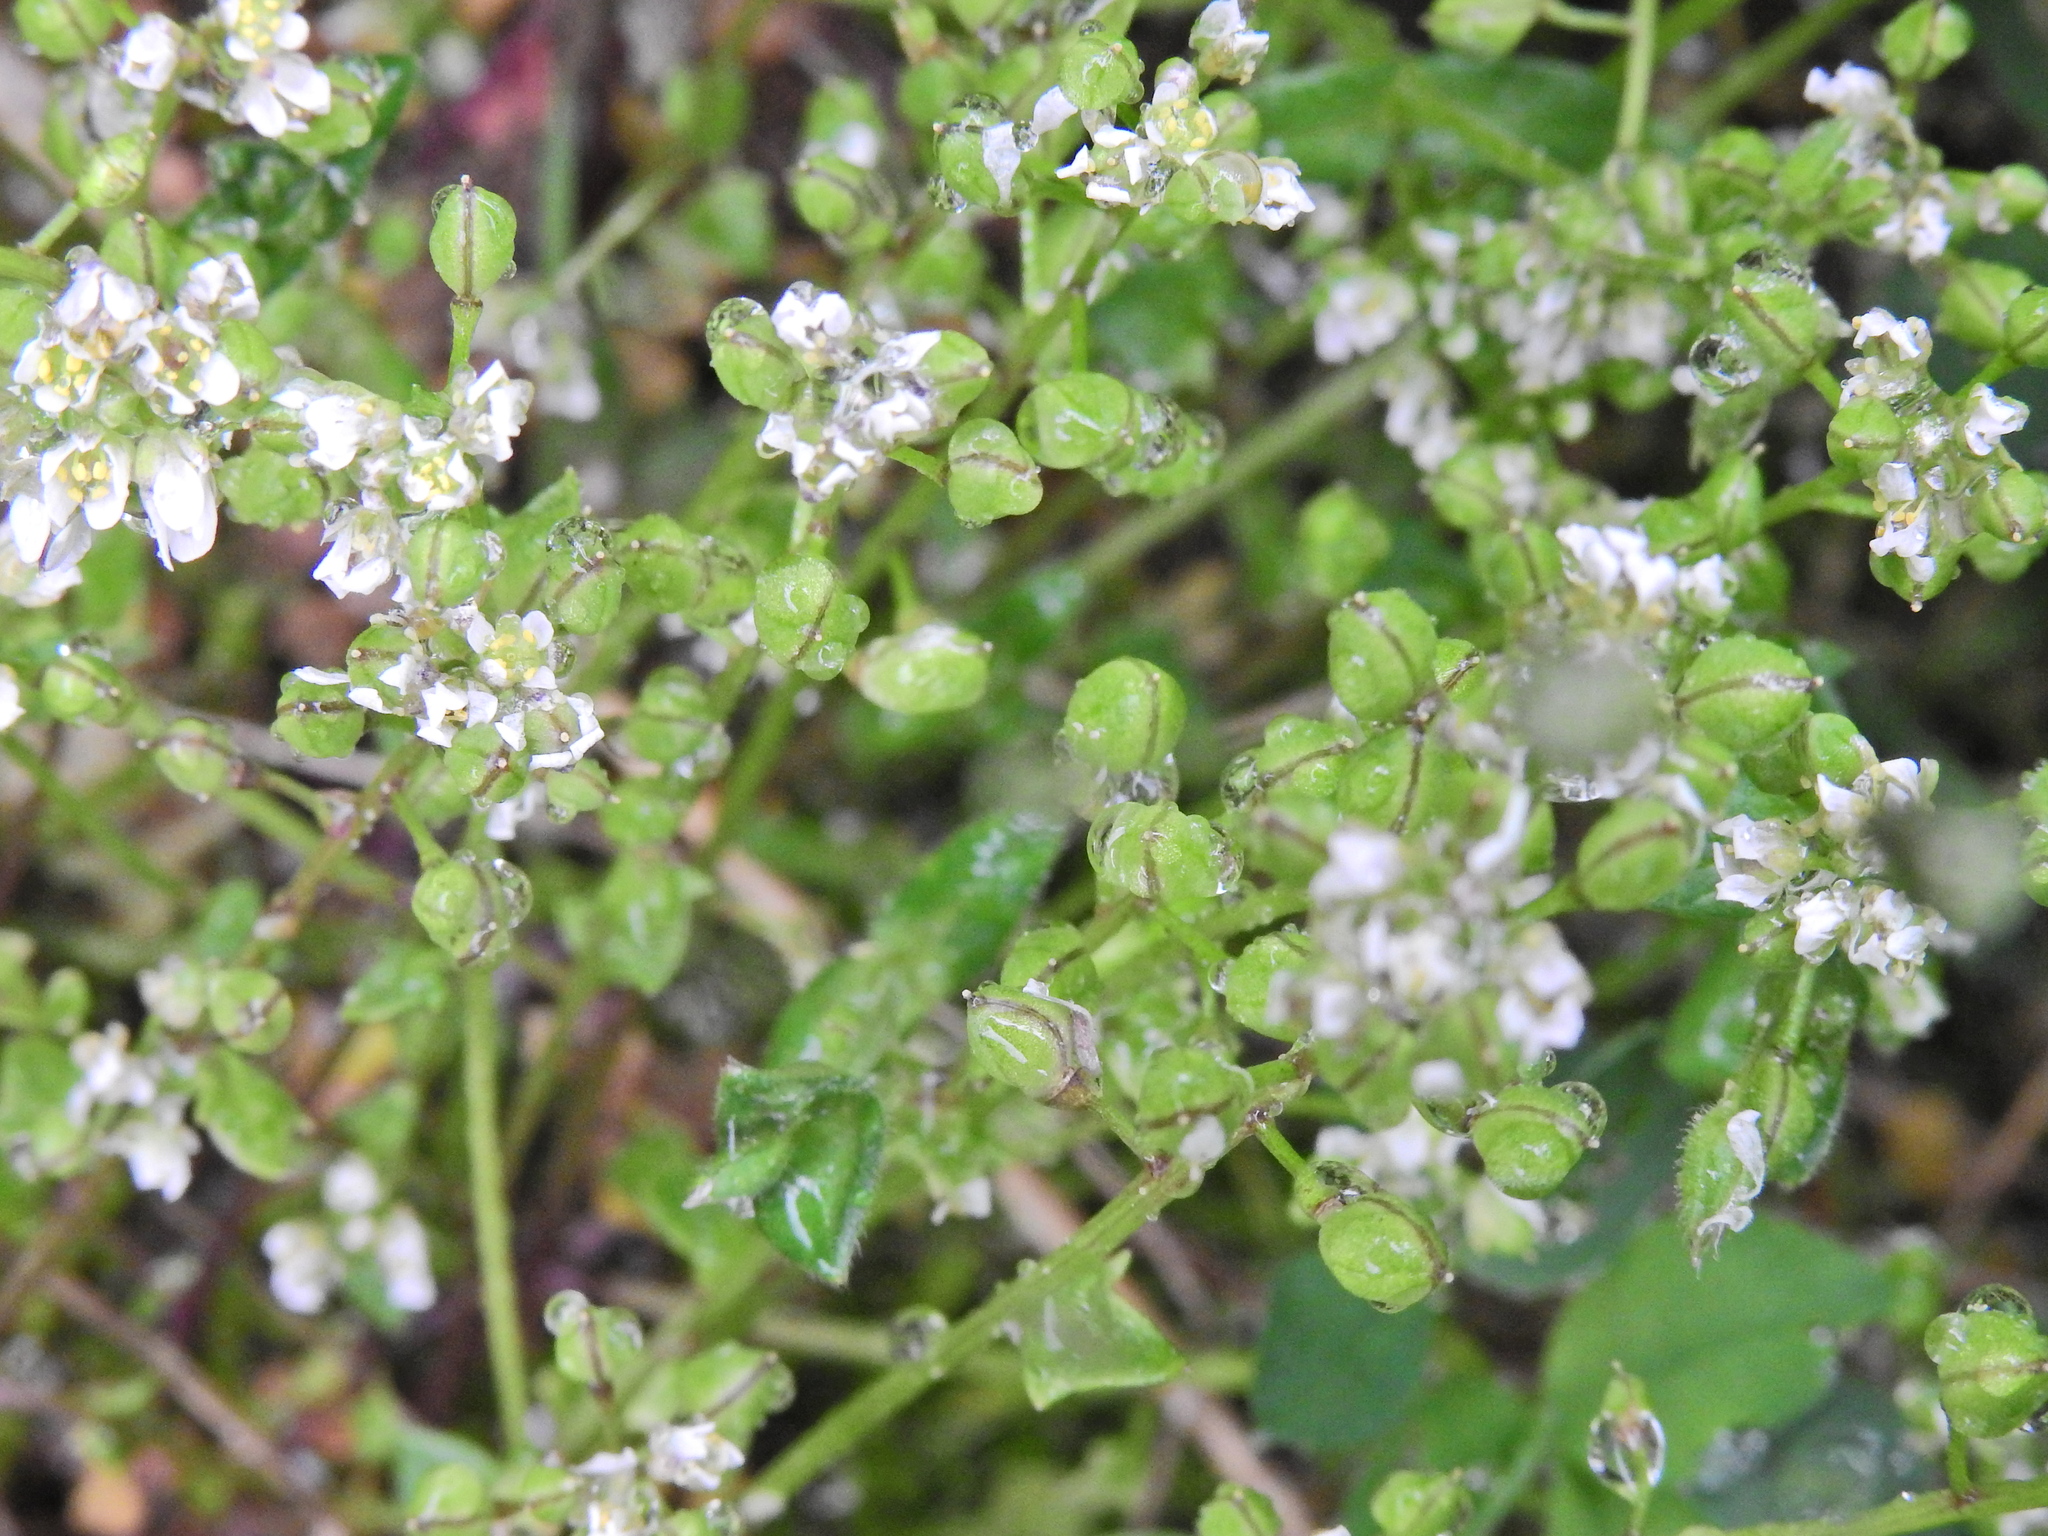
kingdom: Plantae
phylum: Tracheophyta
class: Magnoliopsida
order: Brassicales
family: Brassicaceae
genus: Cochlearia
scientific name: Cochlearia danica
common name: Early scurvygrass
